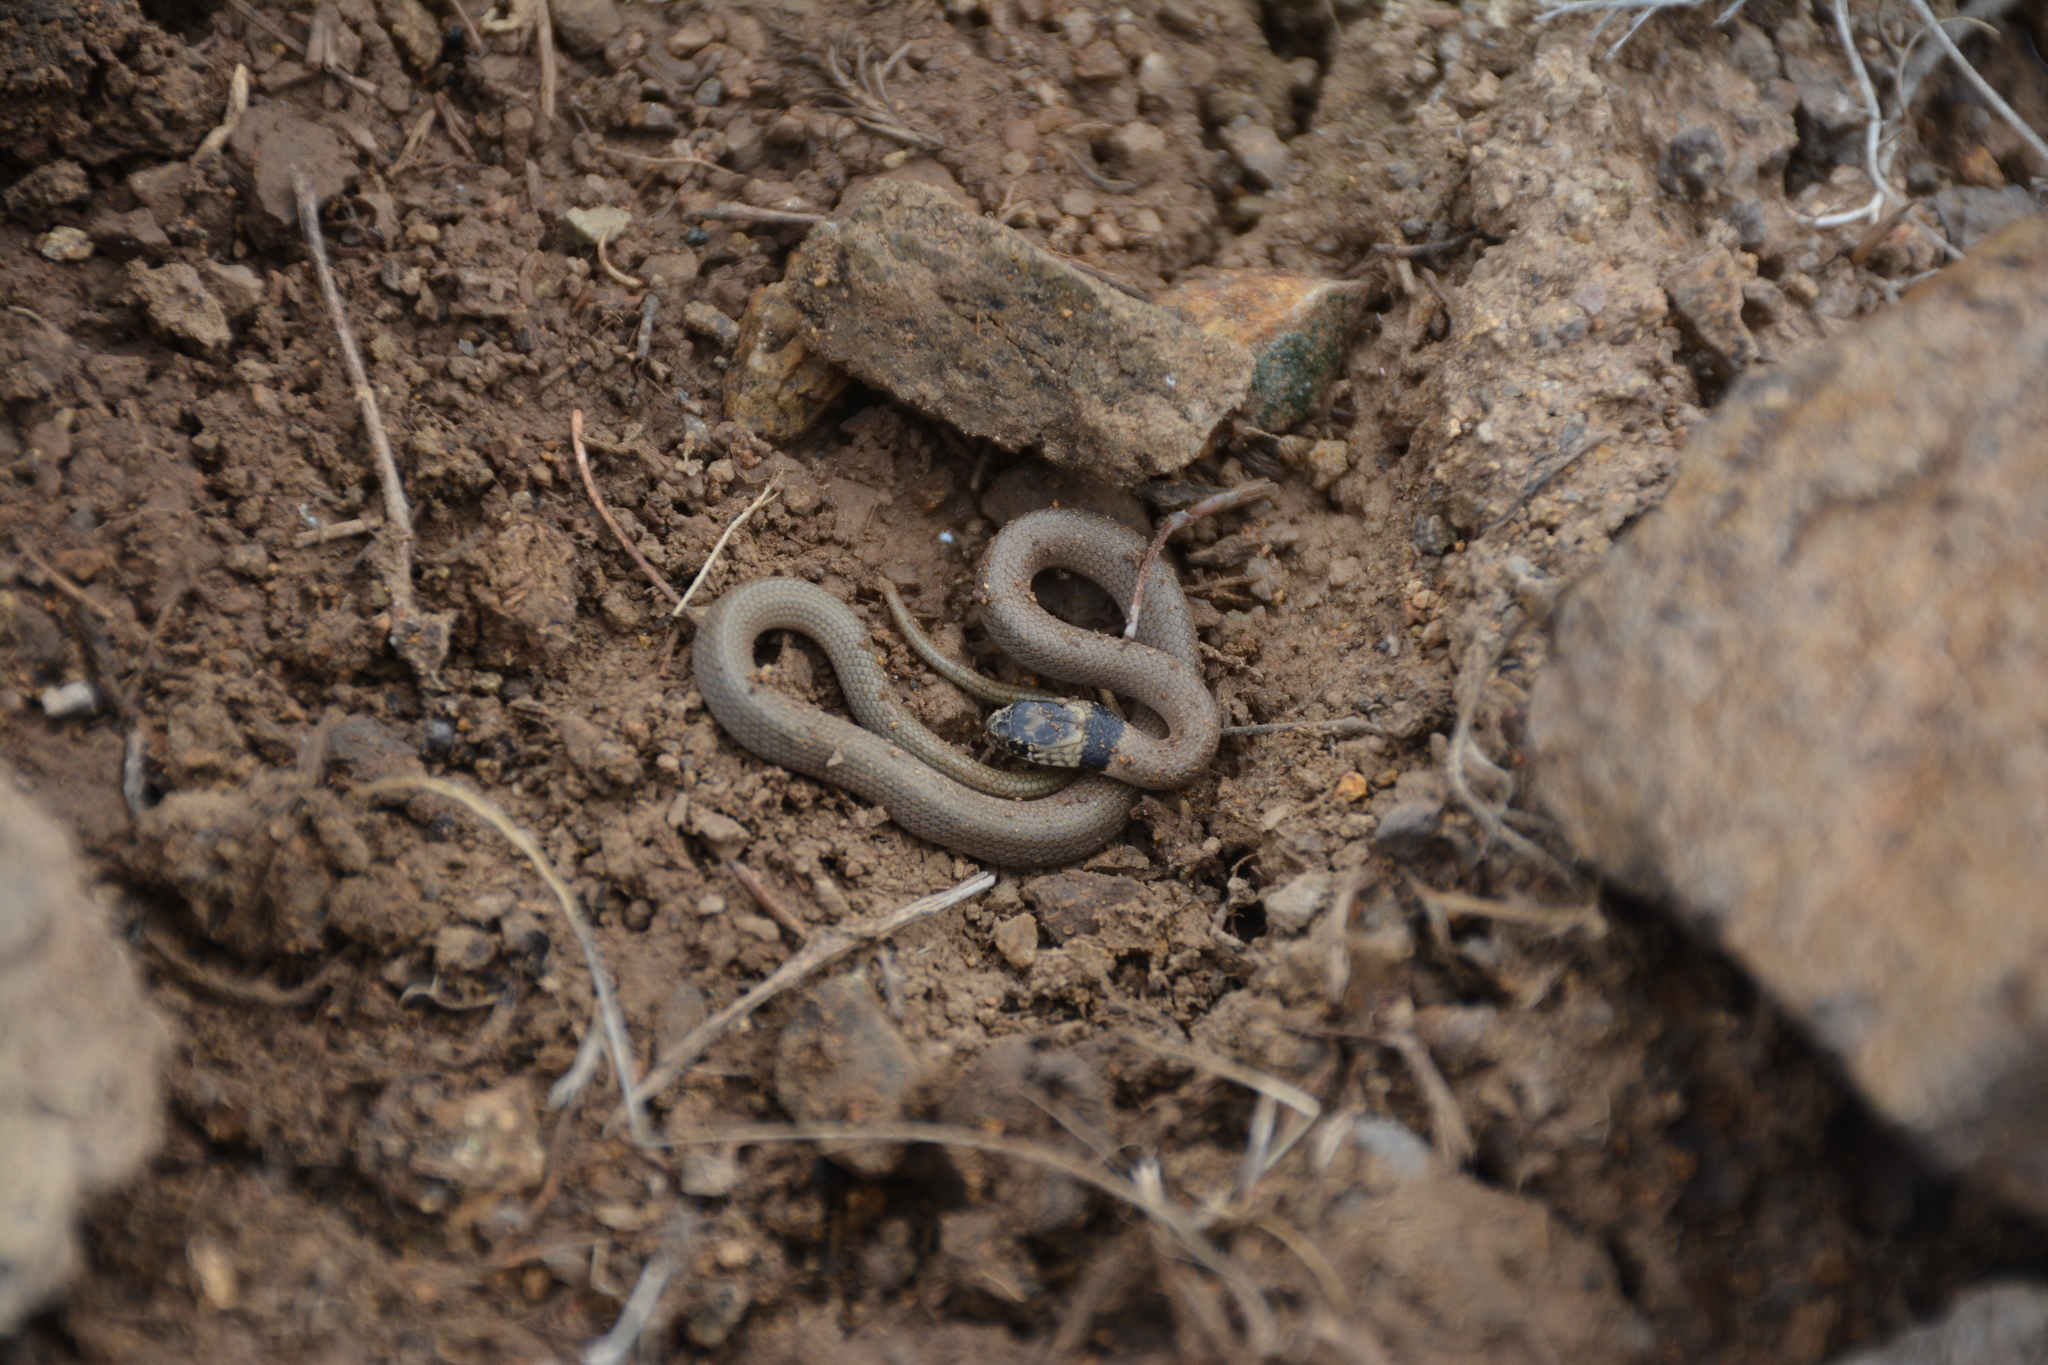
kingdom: Animalia
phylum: Chordata
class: Squamata
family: Colubridae
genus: Eirenis
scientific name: Eirenis collaris
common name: Collared dwarf racer
